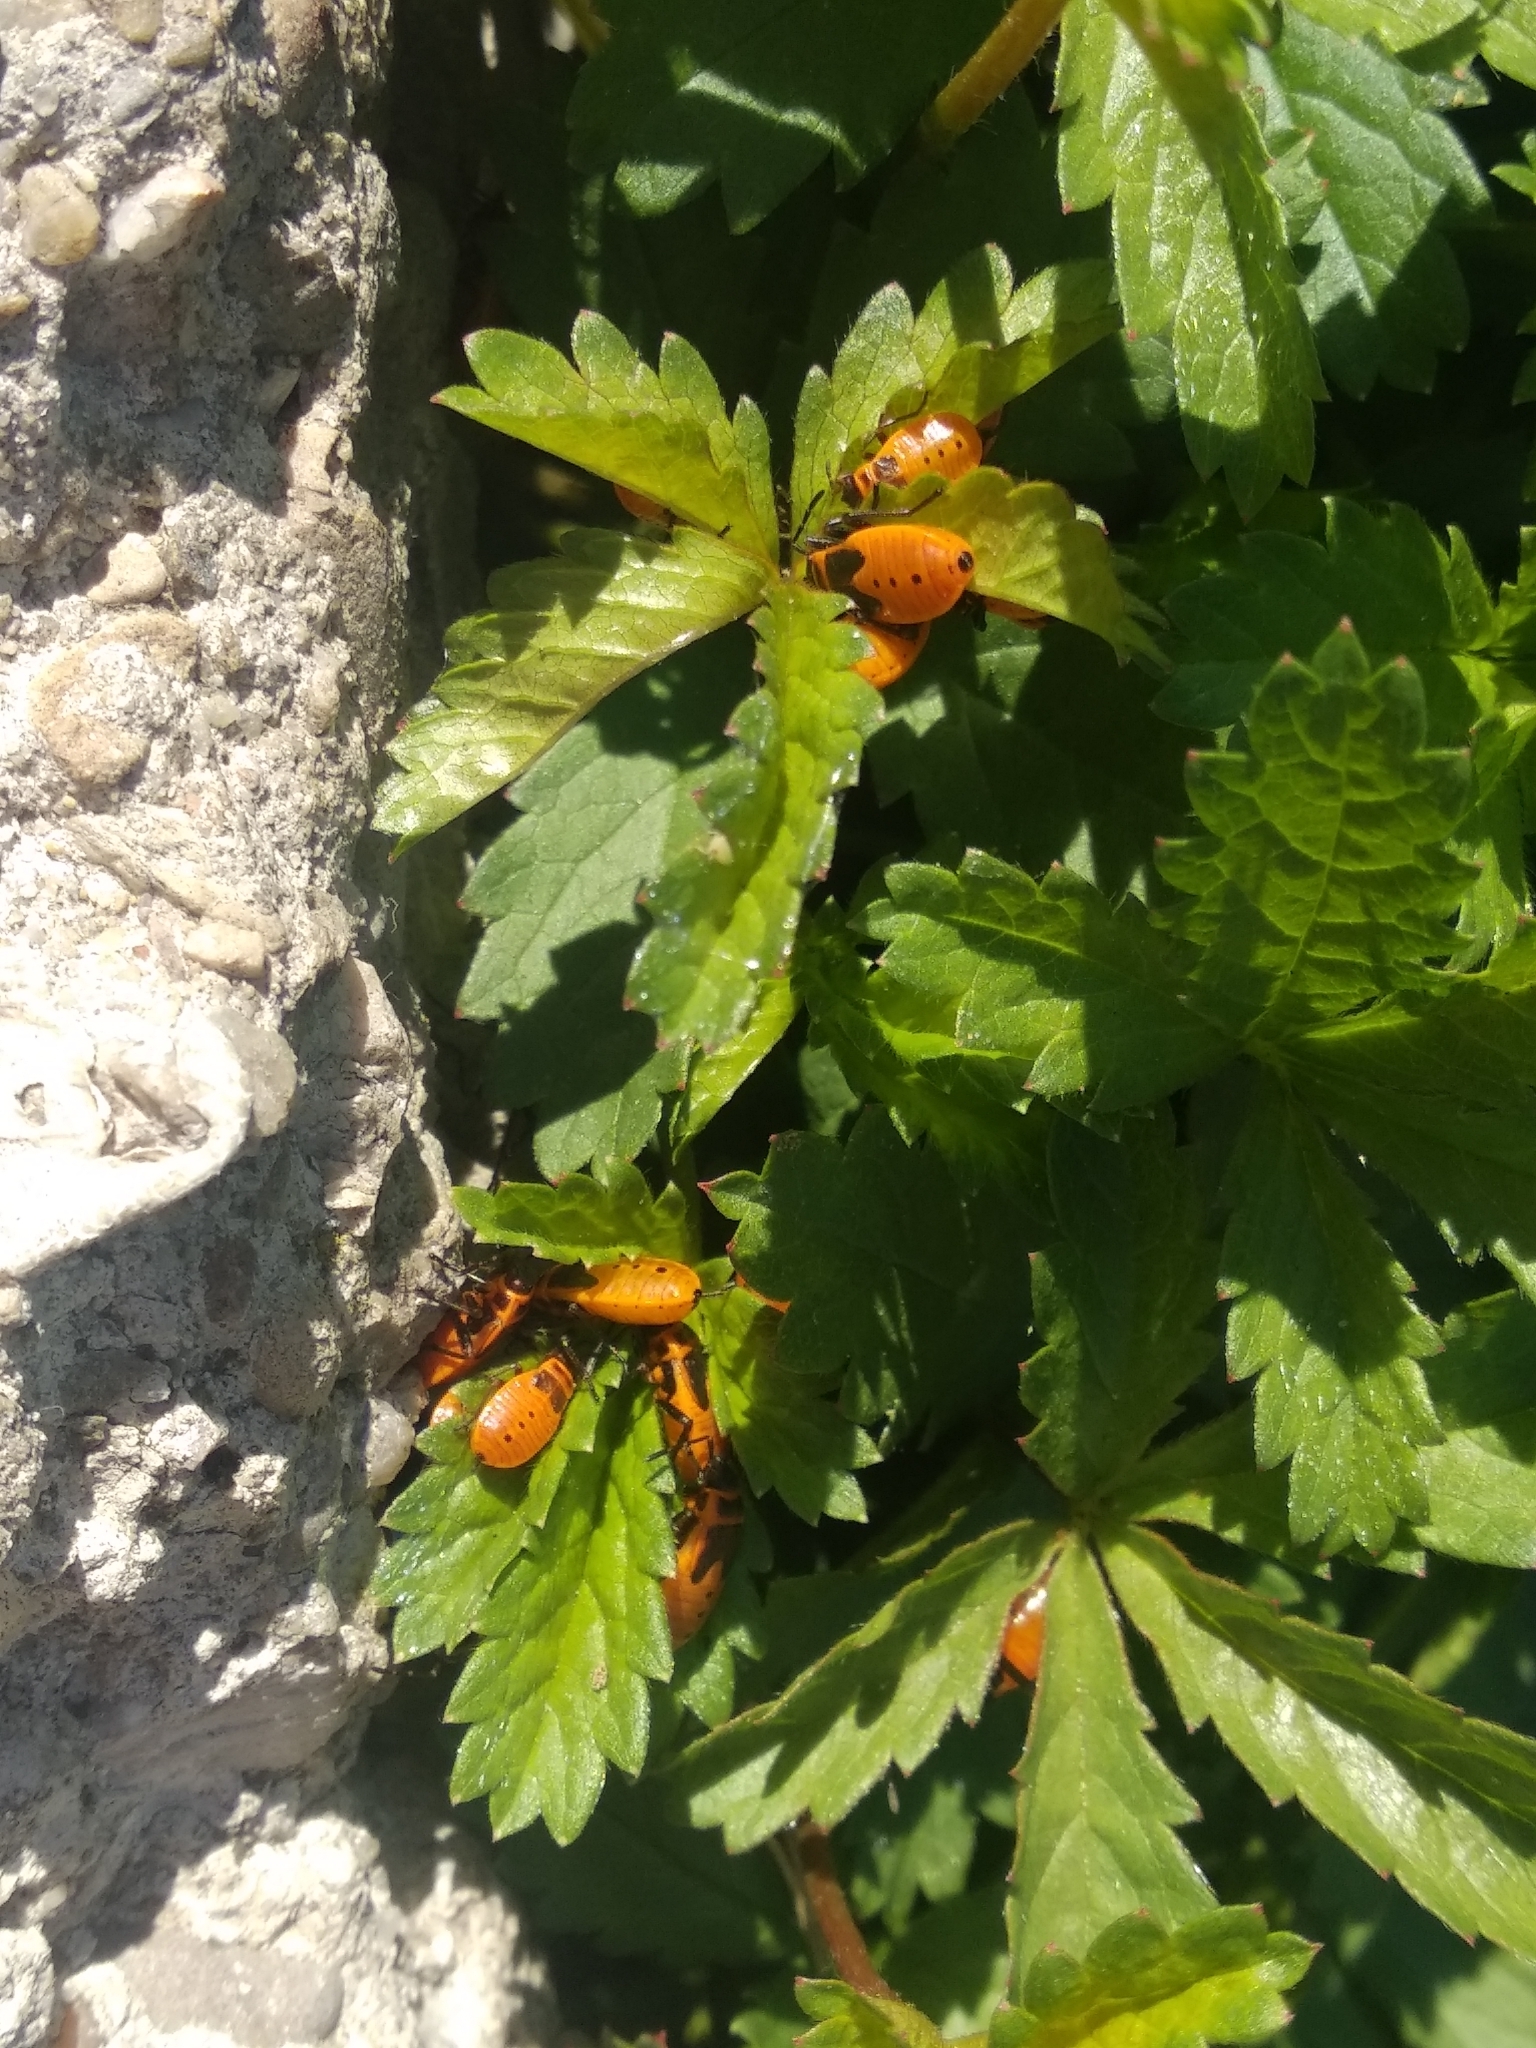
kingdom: Animalia
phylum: Arthropoda
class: Insecta
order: Hemiptera
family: Pyrrhocoridae
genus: Pyrrhocoris
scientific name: Pyrrhocoris apterus
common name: Firebug
